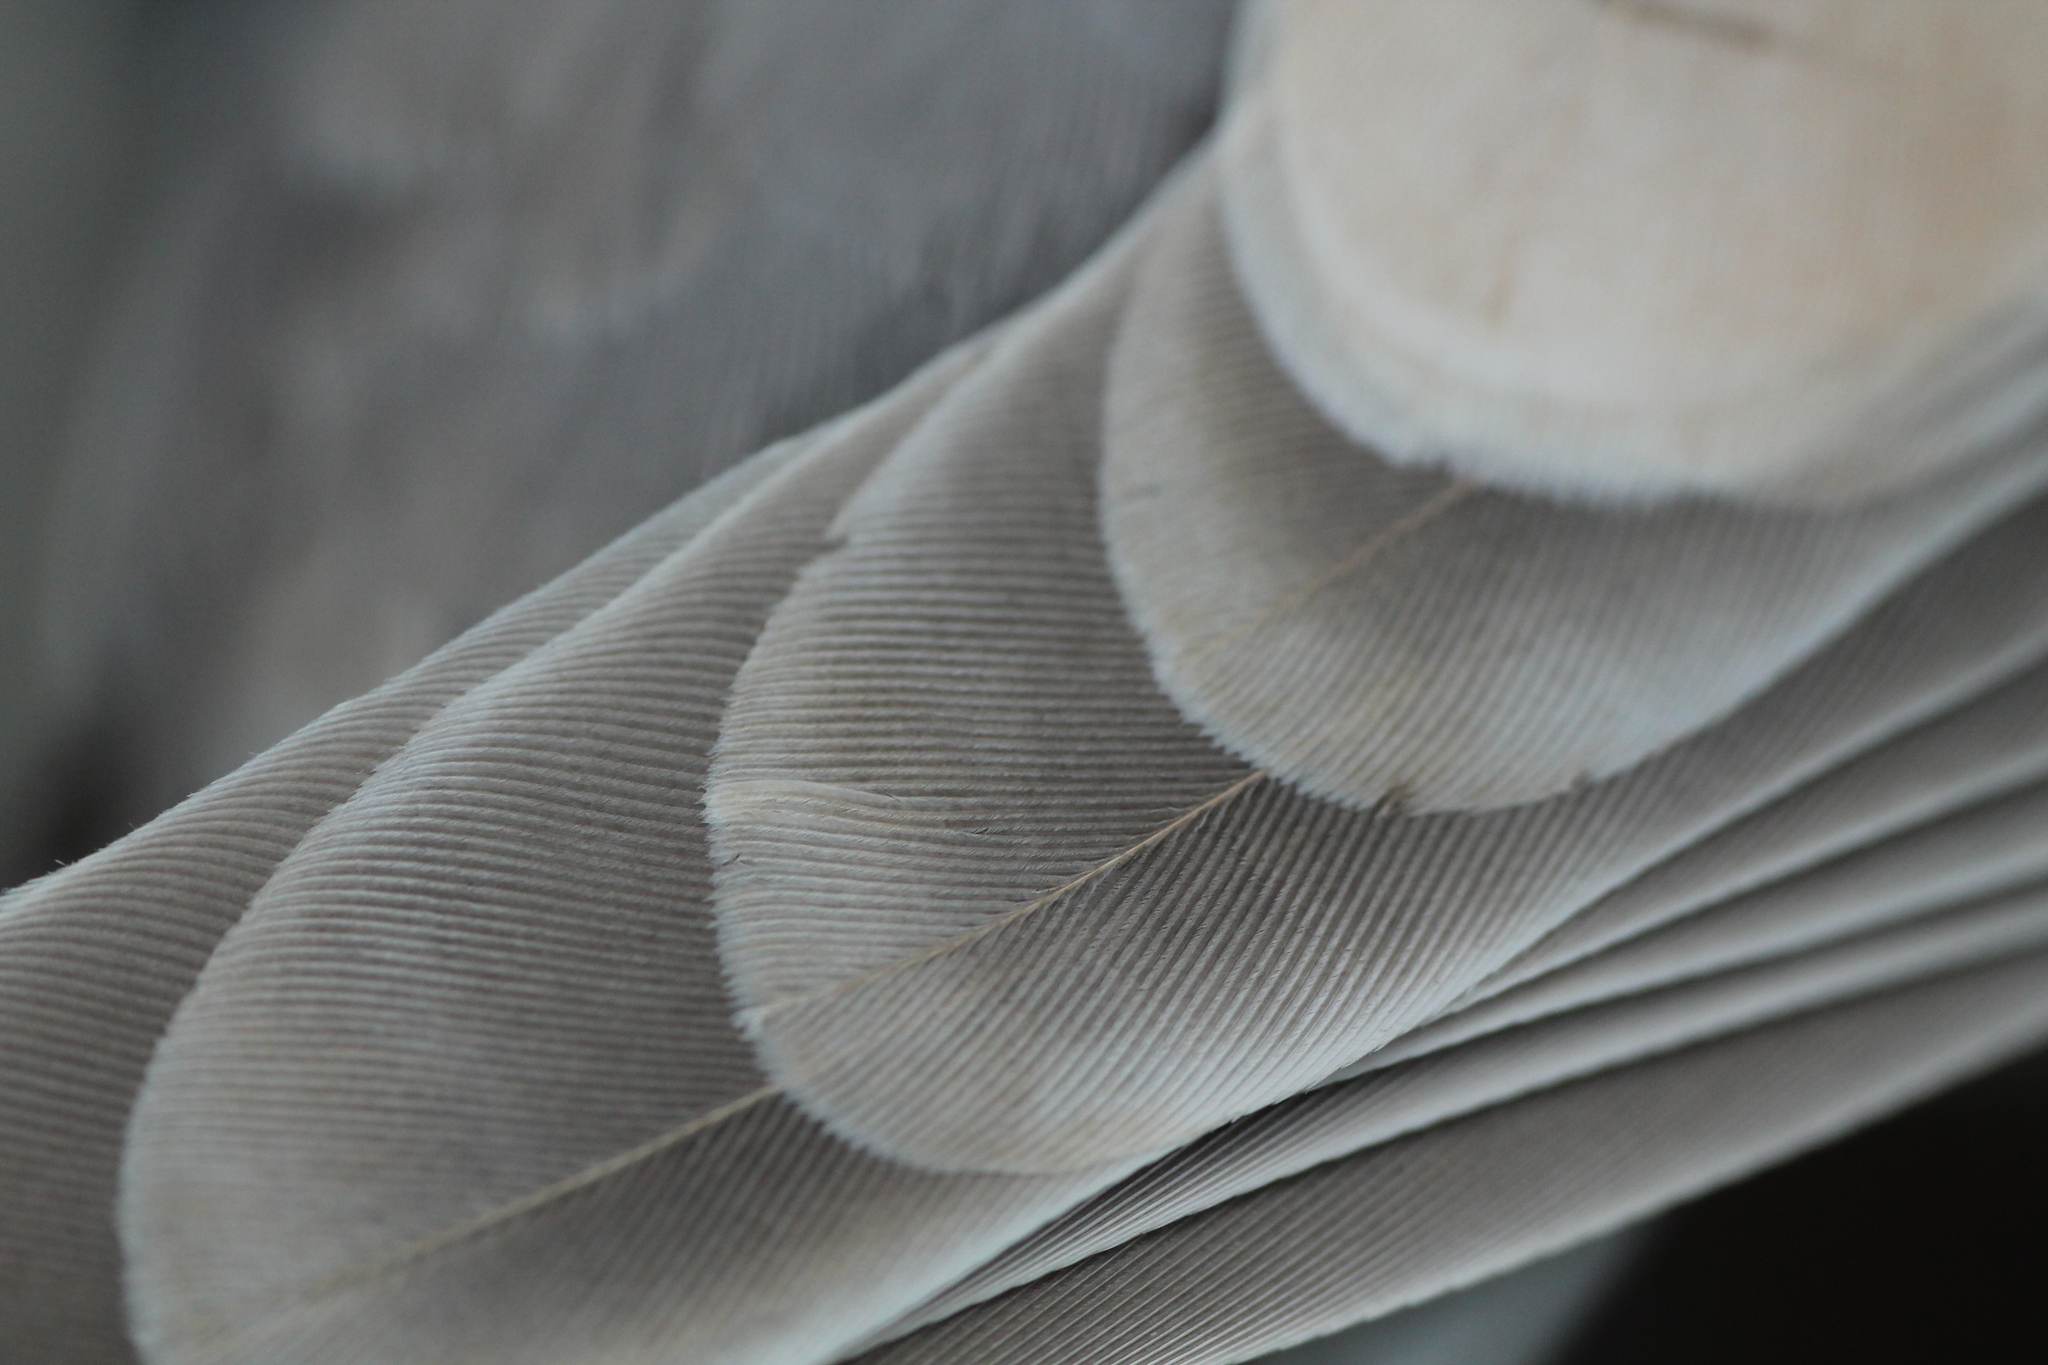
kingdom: Animalia
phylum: Chordata
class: Aves
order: Columbiformes
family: Columbidae
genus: Streptopelia
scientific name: Streptopelia roseogrisea
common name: African collared dove
